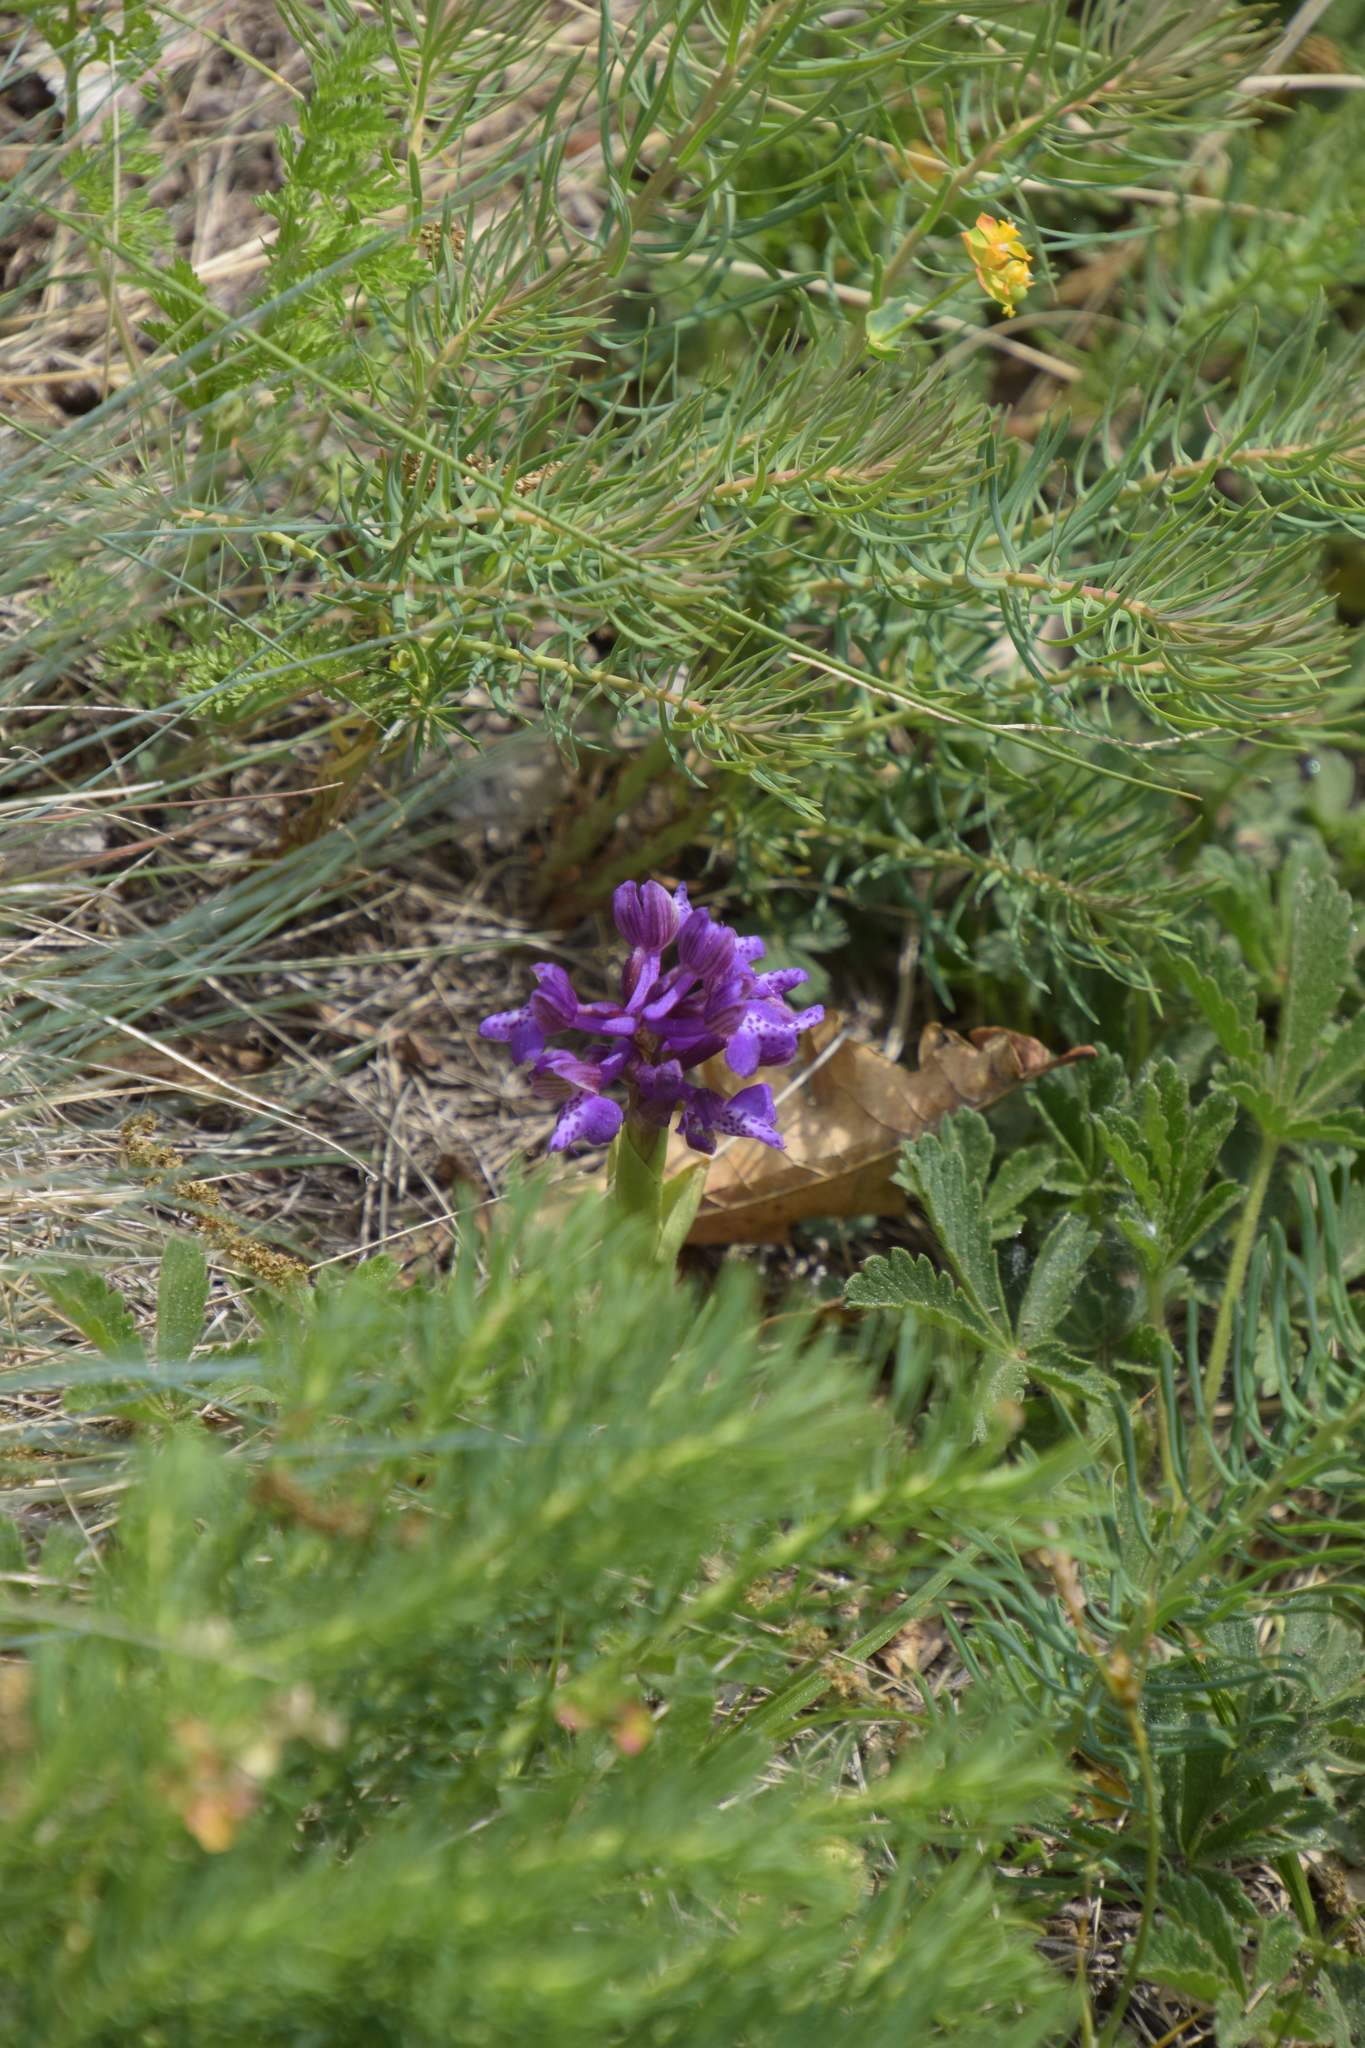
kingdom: Plantae
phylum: Tracheophyta
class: Liliopsida
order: Asparagales
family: Orchidaceae
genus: Anacamptis
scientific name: Anacamptis morio
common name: Green-winged orchid
